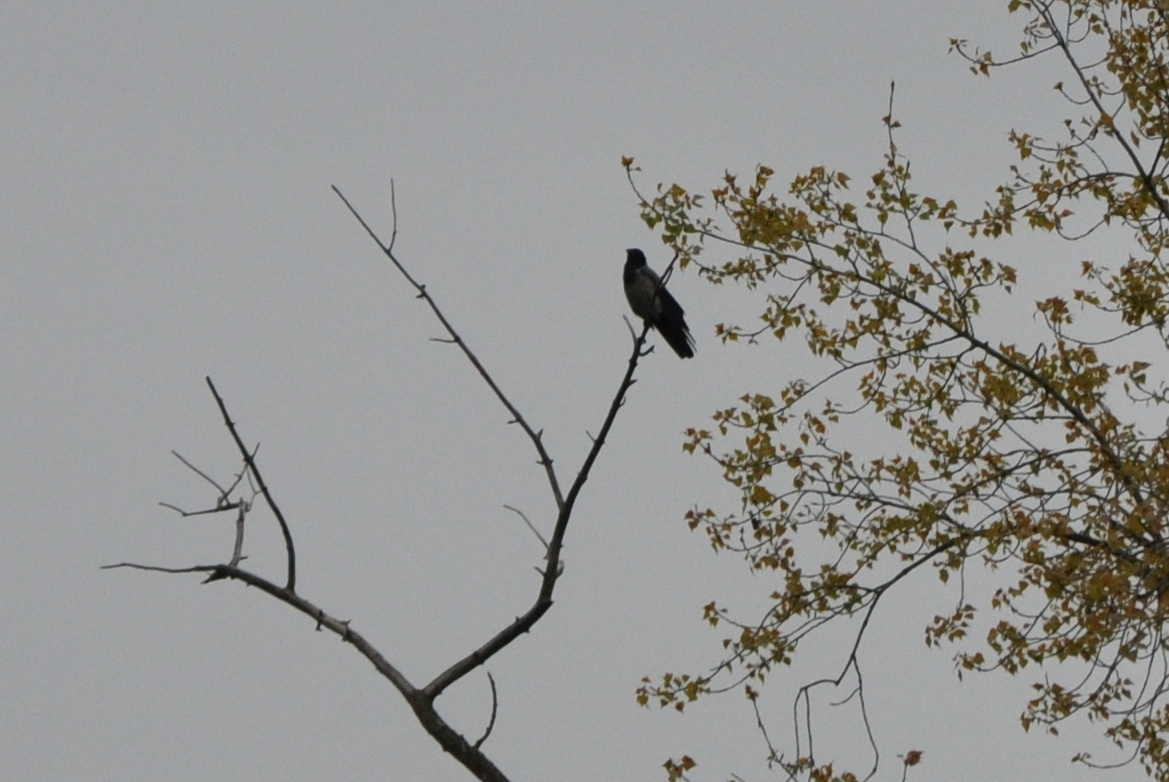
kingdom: Animalia
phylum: Chordata
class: Aves
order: Passeriformes
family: Corvidae
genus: Corvus
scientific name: Corvus cornix
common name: Hooded crow
